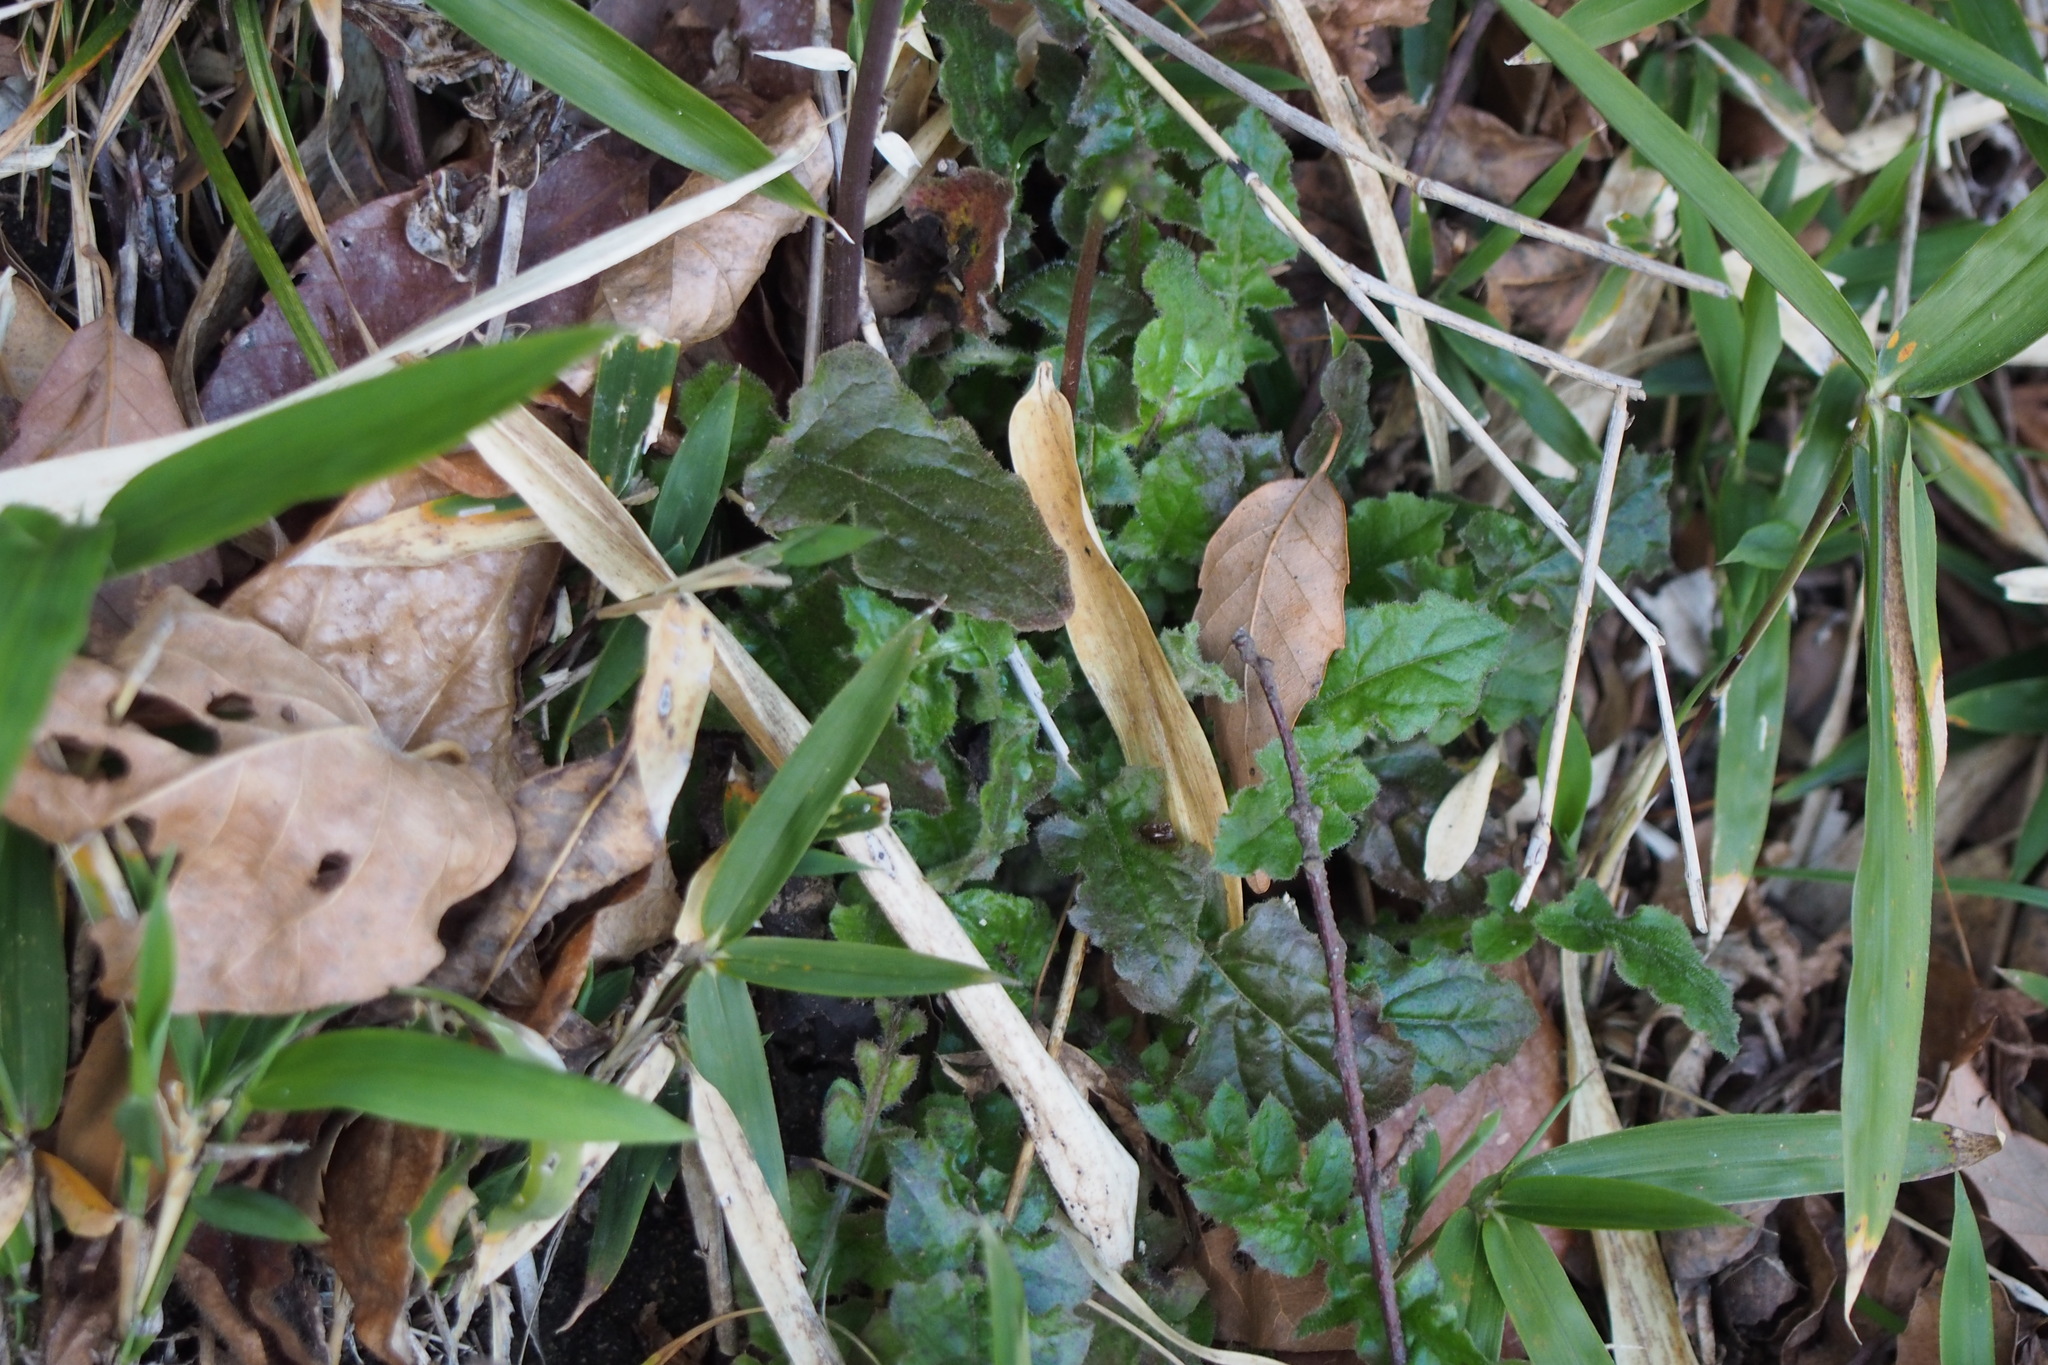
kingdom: Plantae
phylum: Tracheophyta
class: Magnoliopsida
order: Asterales
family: Asteraceae
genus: Youngia
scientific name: Youngia japonica
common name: Oriental false hawksbeard
